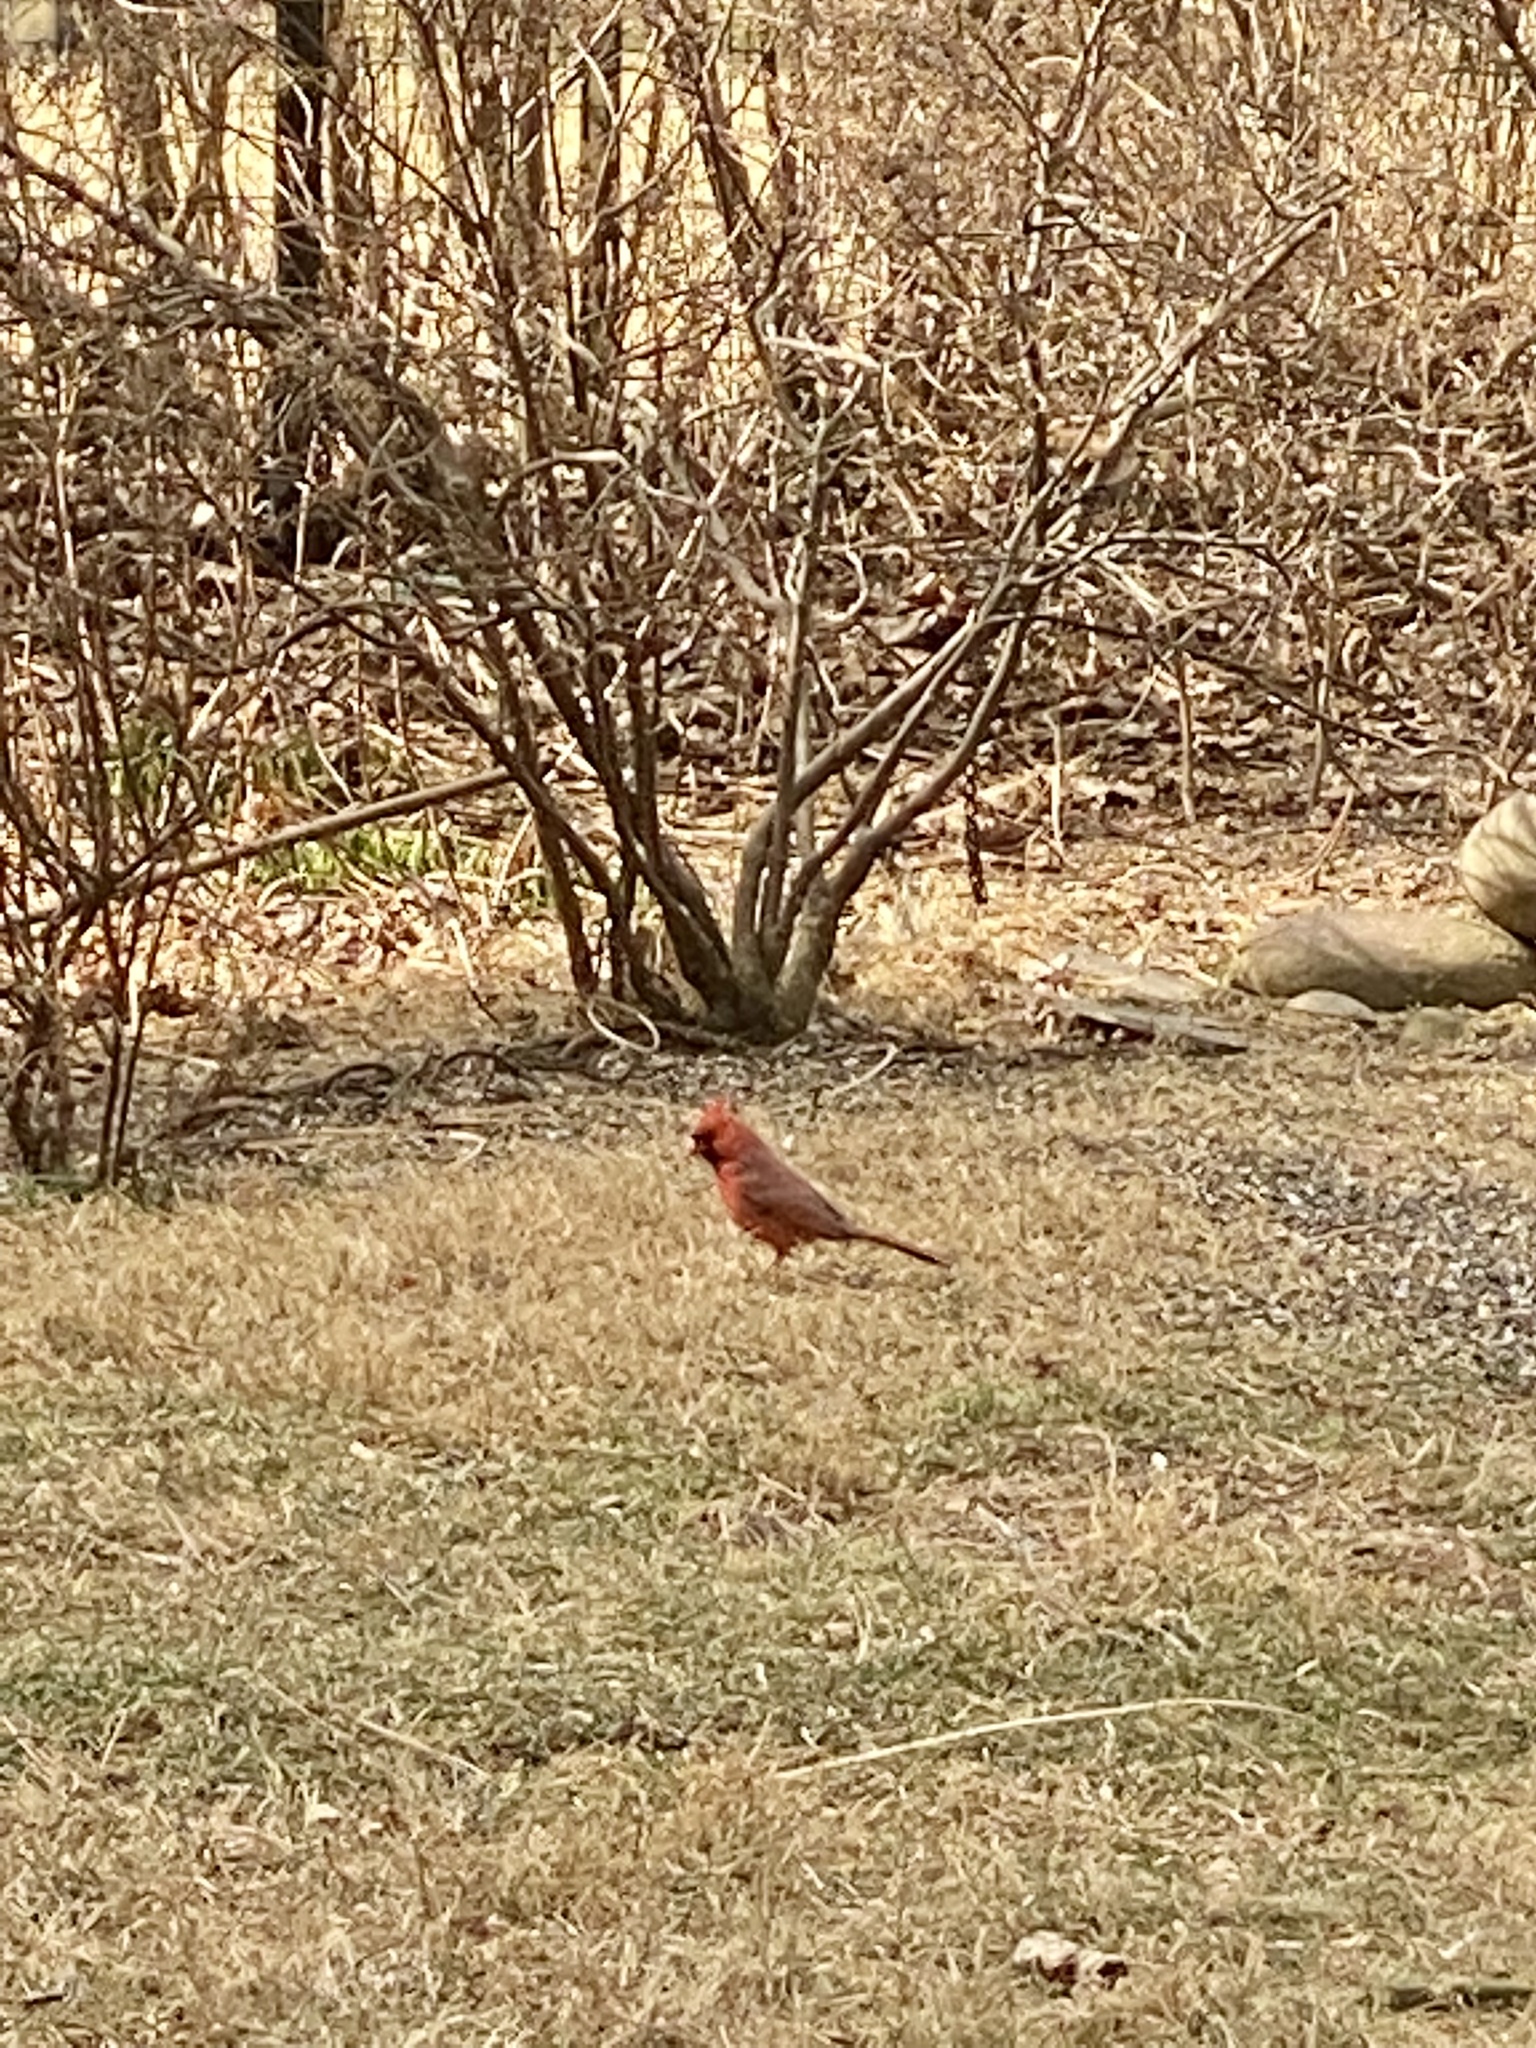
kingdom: Animalia
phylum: Chordata
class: Aves
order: Passeriformes
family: Cardinalidae
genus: Cardinalis
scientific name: Cardinalis cardinalis
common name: Northern cardinal
